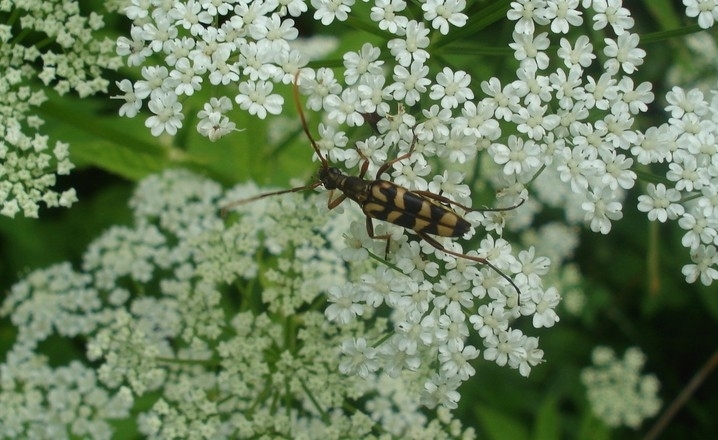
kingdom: Animalia
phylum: Arthropoda
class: Insecta
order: Coleoptera
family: Cerambycidae
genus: Leptura
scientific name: Leptura annularis
